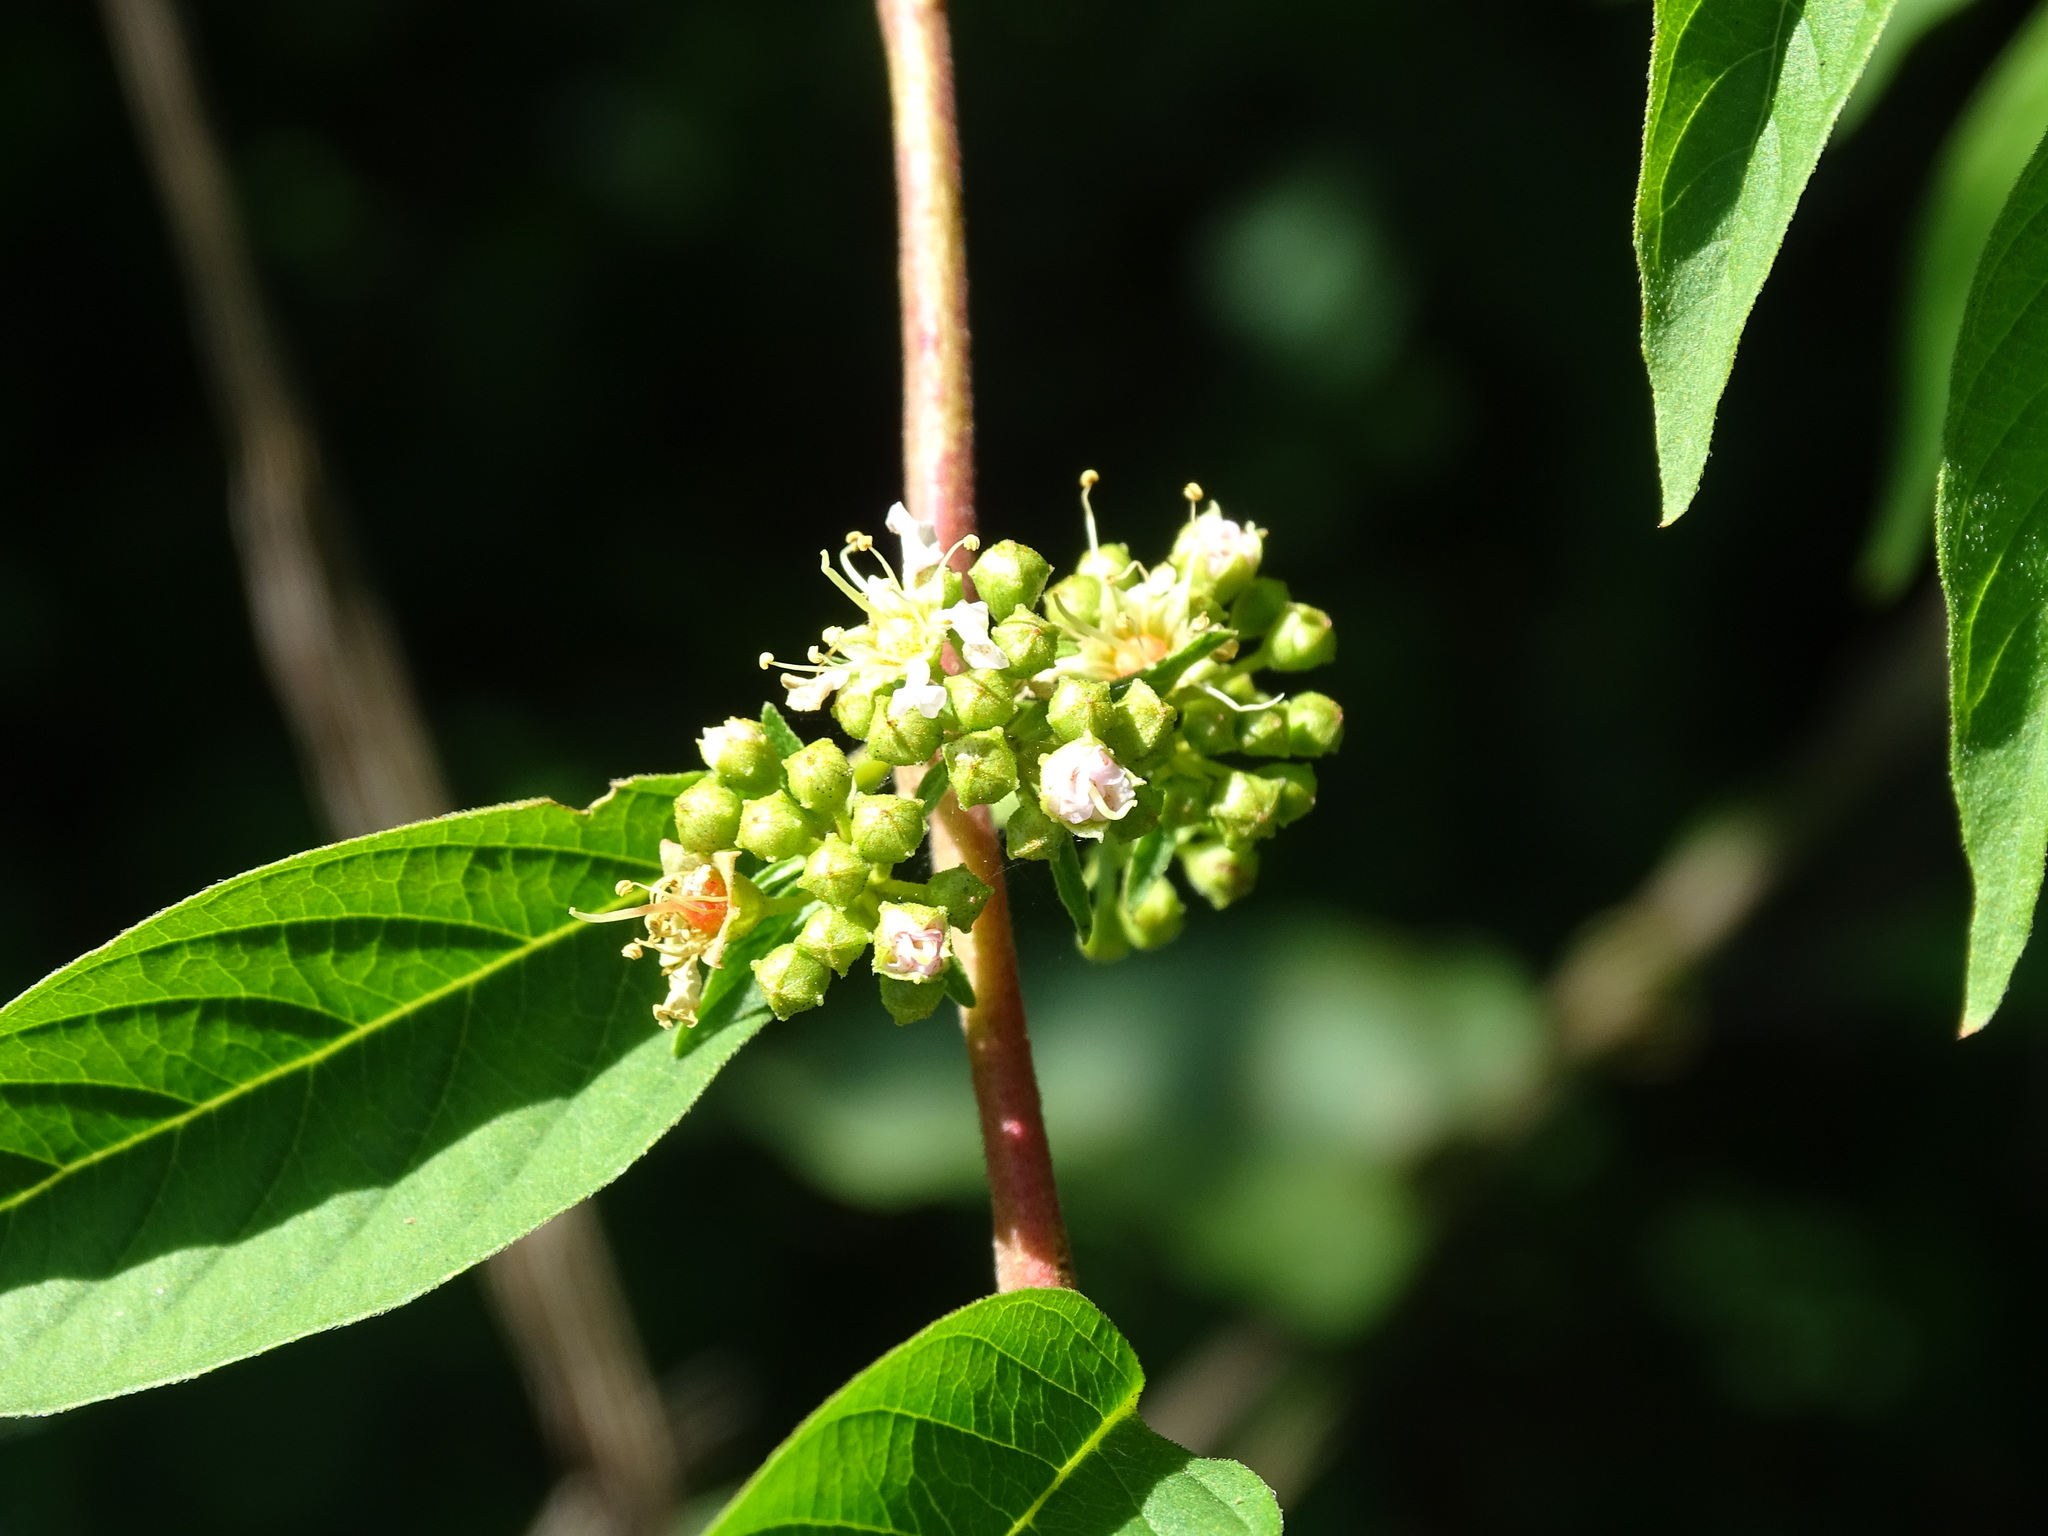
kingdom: Plantae
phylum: Tracheophyta
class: Magnoliopsida
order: Myrtales
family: Lythraceae
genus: Adenaria
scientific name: Adenaria floribunda
